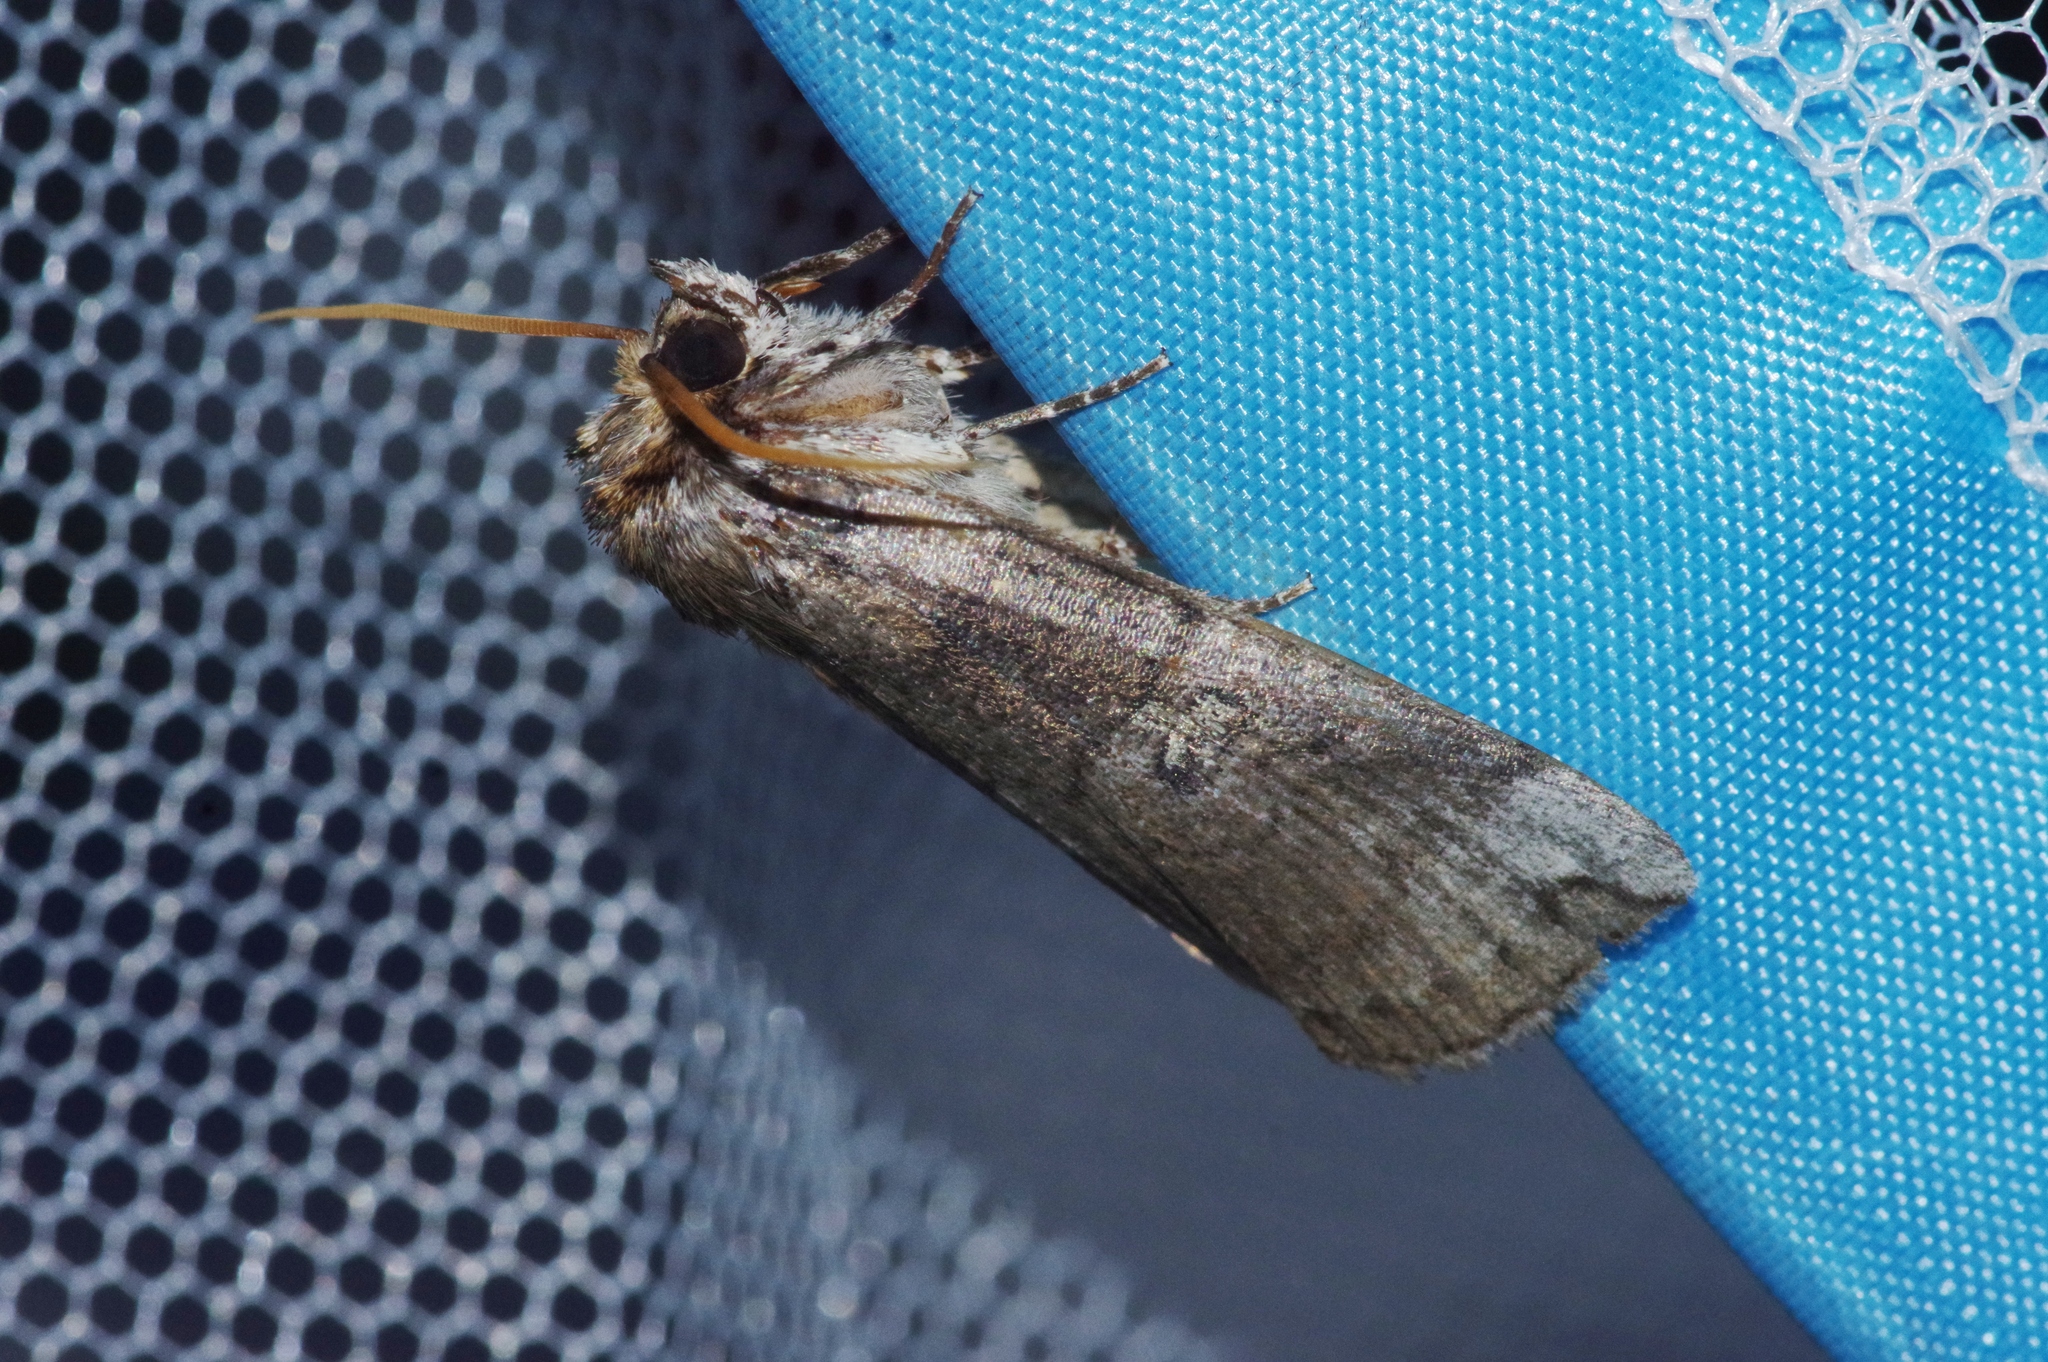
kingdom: Animalia
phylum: Arthropoda
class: Insecta
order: Lepidoptera
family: Drepanidae
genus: Tethea
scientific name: Tethea ampliata
